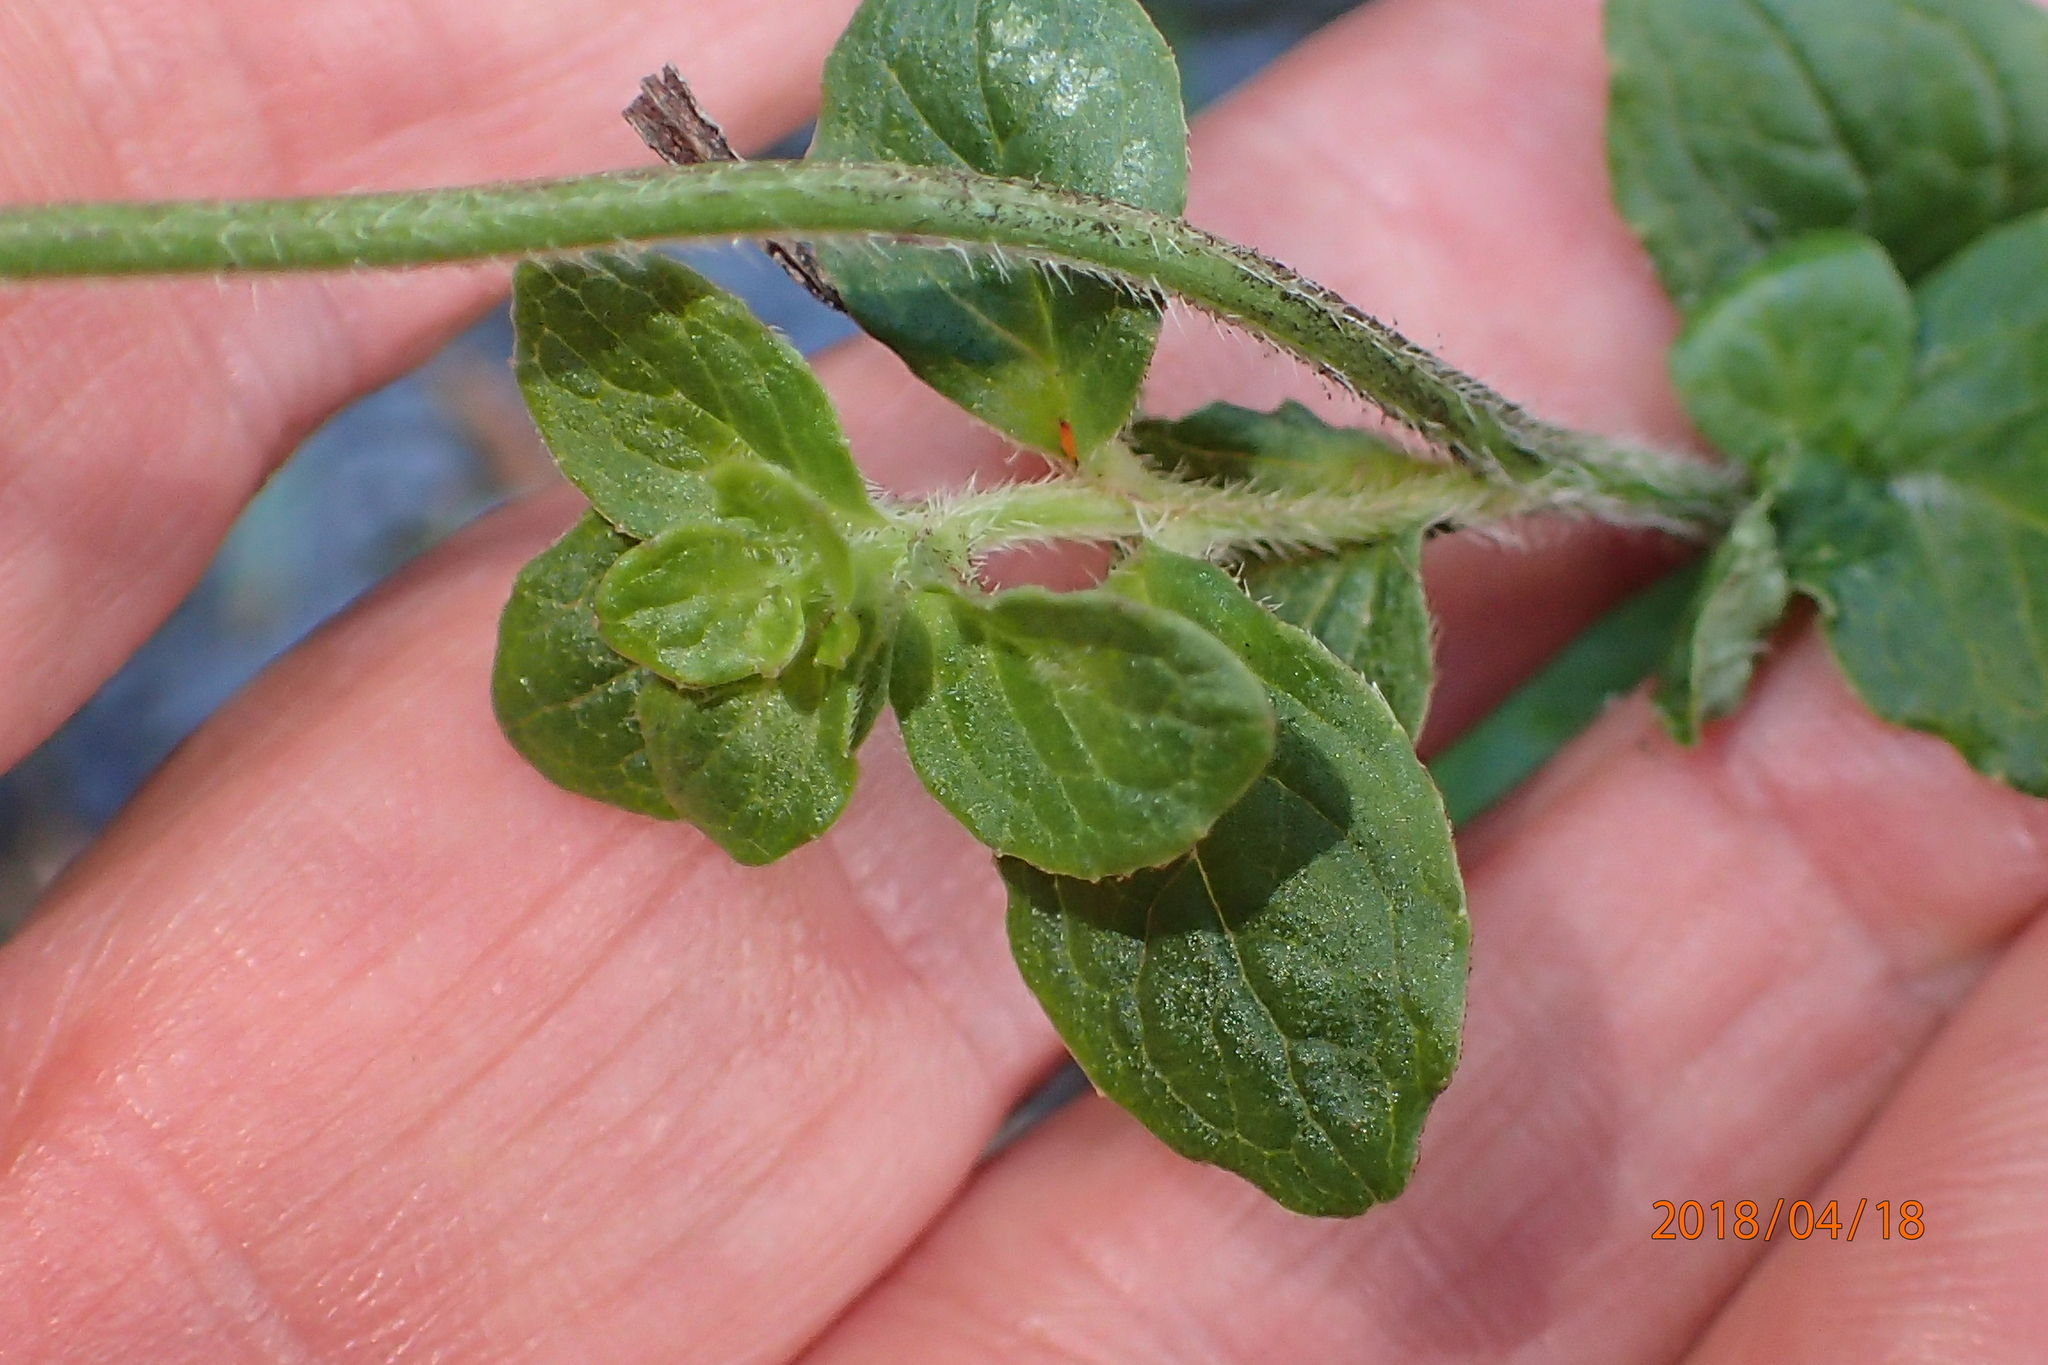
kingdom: Plantae
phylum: Tracheophyta
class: Magnoliopsida
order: Asterales
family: Campanulaceae
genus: Wahlenbergia
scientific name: Wahlenbergia rivularis
